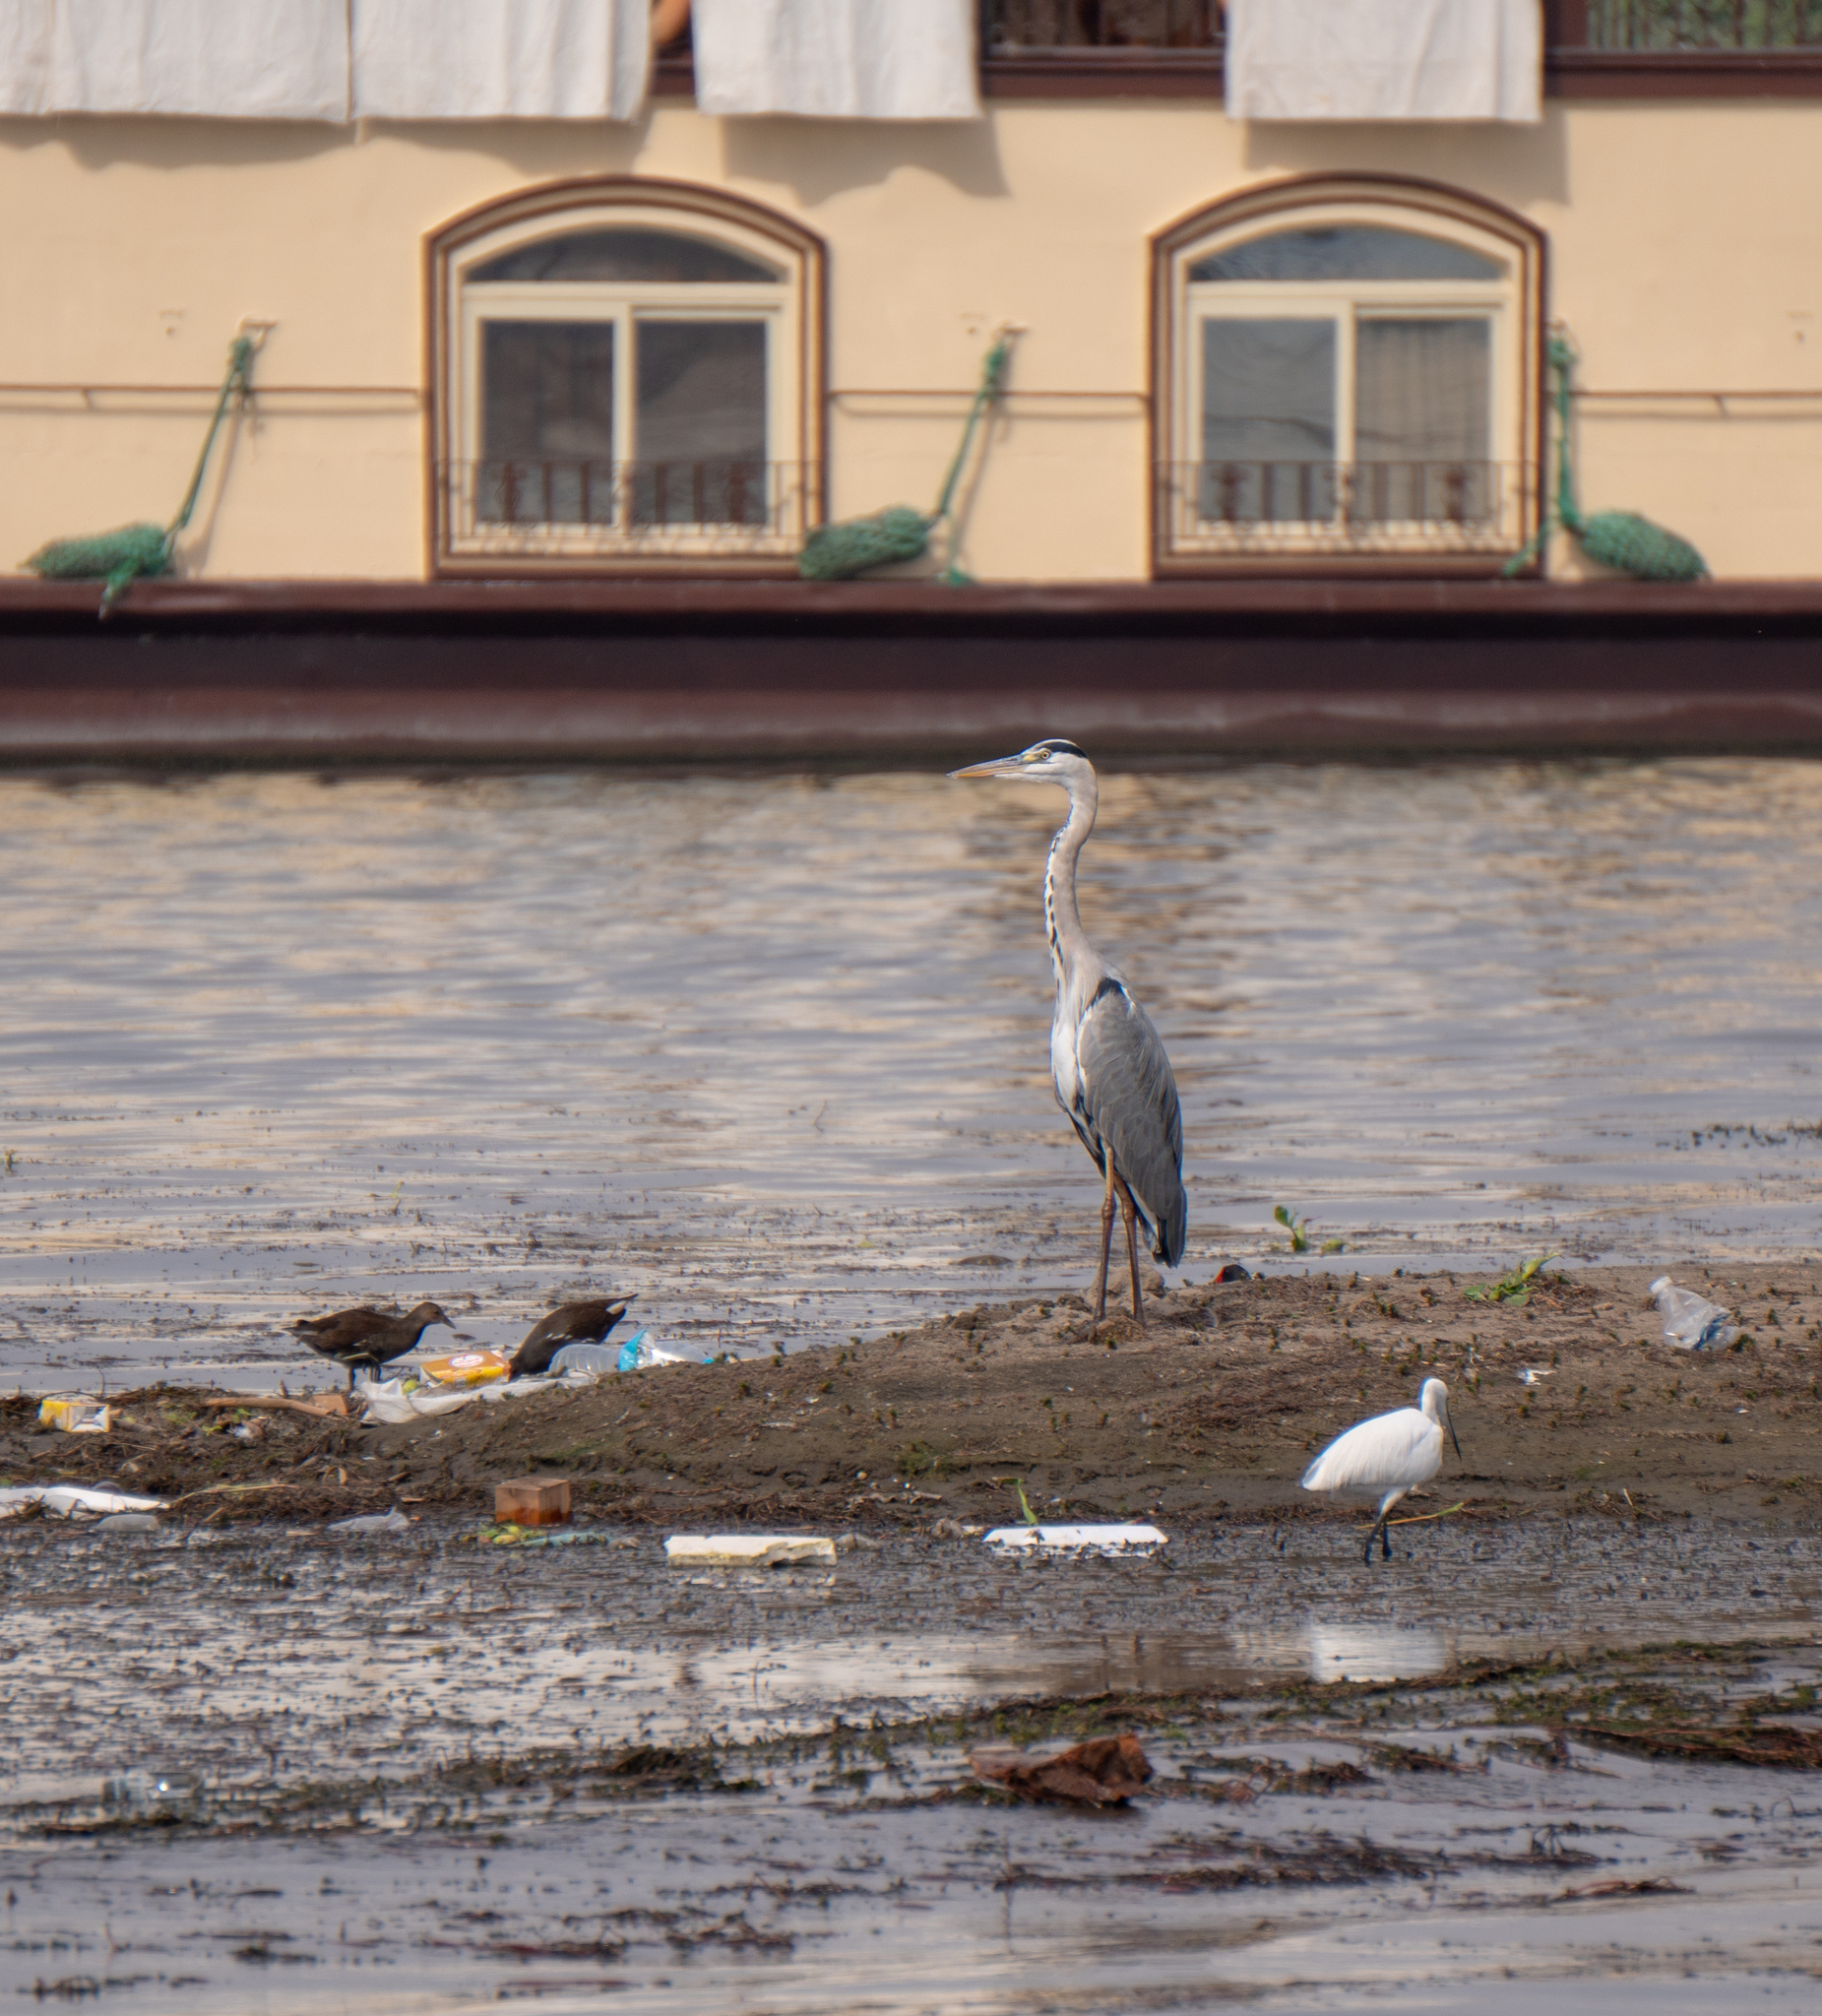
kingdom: Animalia
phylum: Chordata
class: Aves
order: Pelecaniformes
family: Ardeidae
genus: Ardea
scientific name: Ardea cinerea
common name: Grey heron
